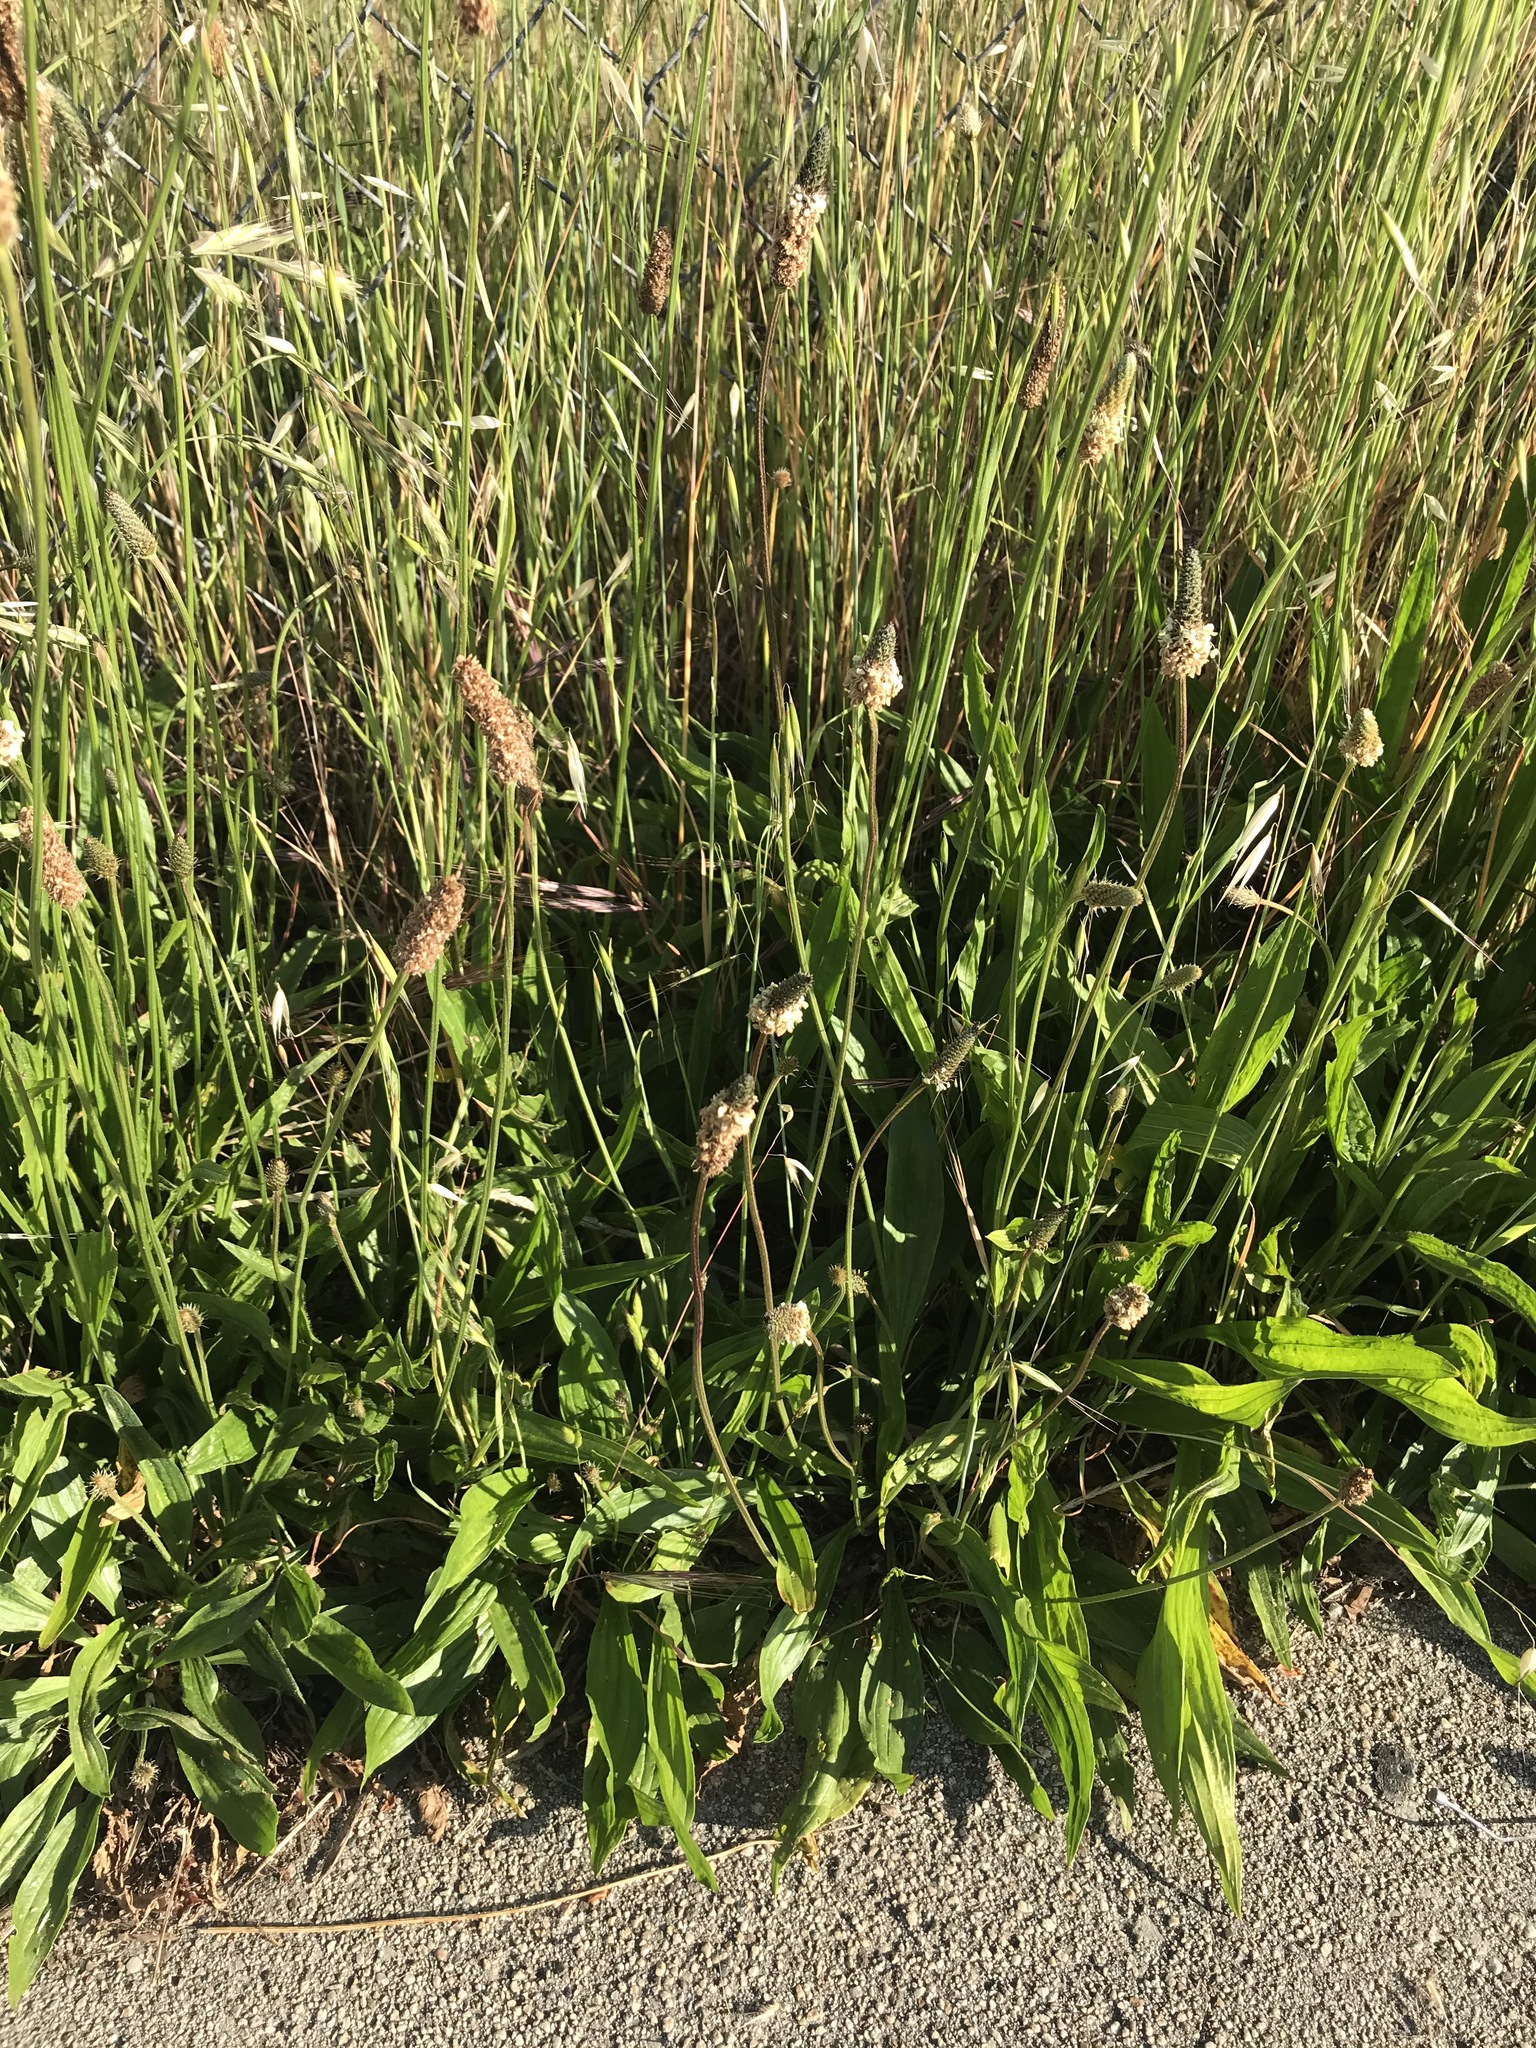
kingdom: Plantae
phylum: Tracheophyta
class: Magnoliopsida
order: Lamiales
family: Plantaginaceae
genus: Plantago
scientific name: Plantago lanceolata
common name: Ribwort plantain
